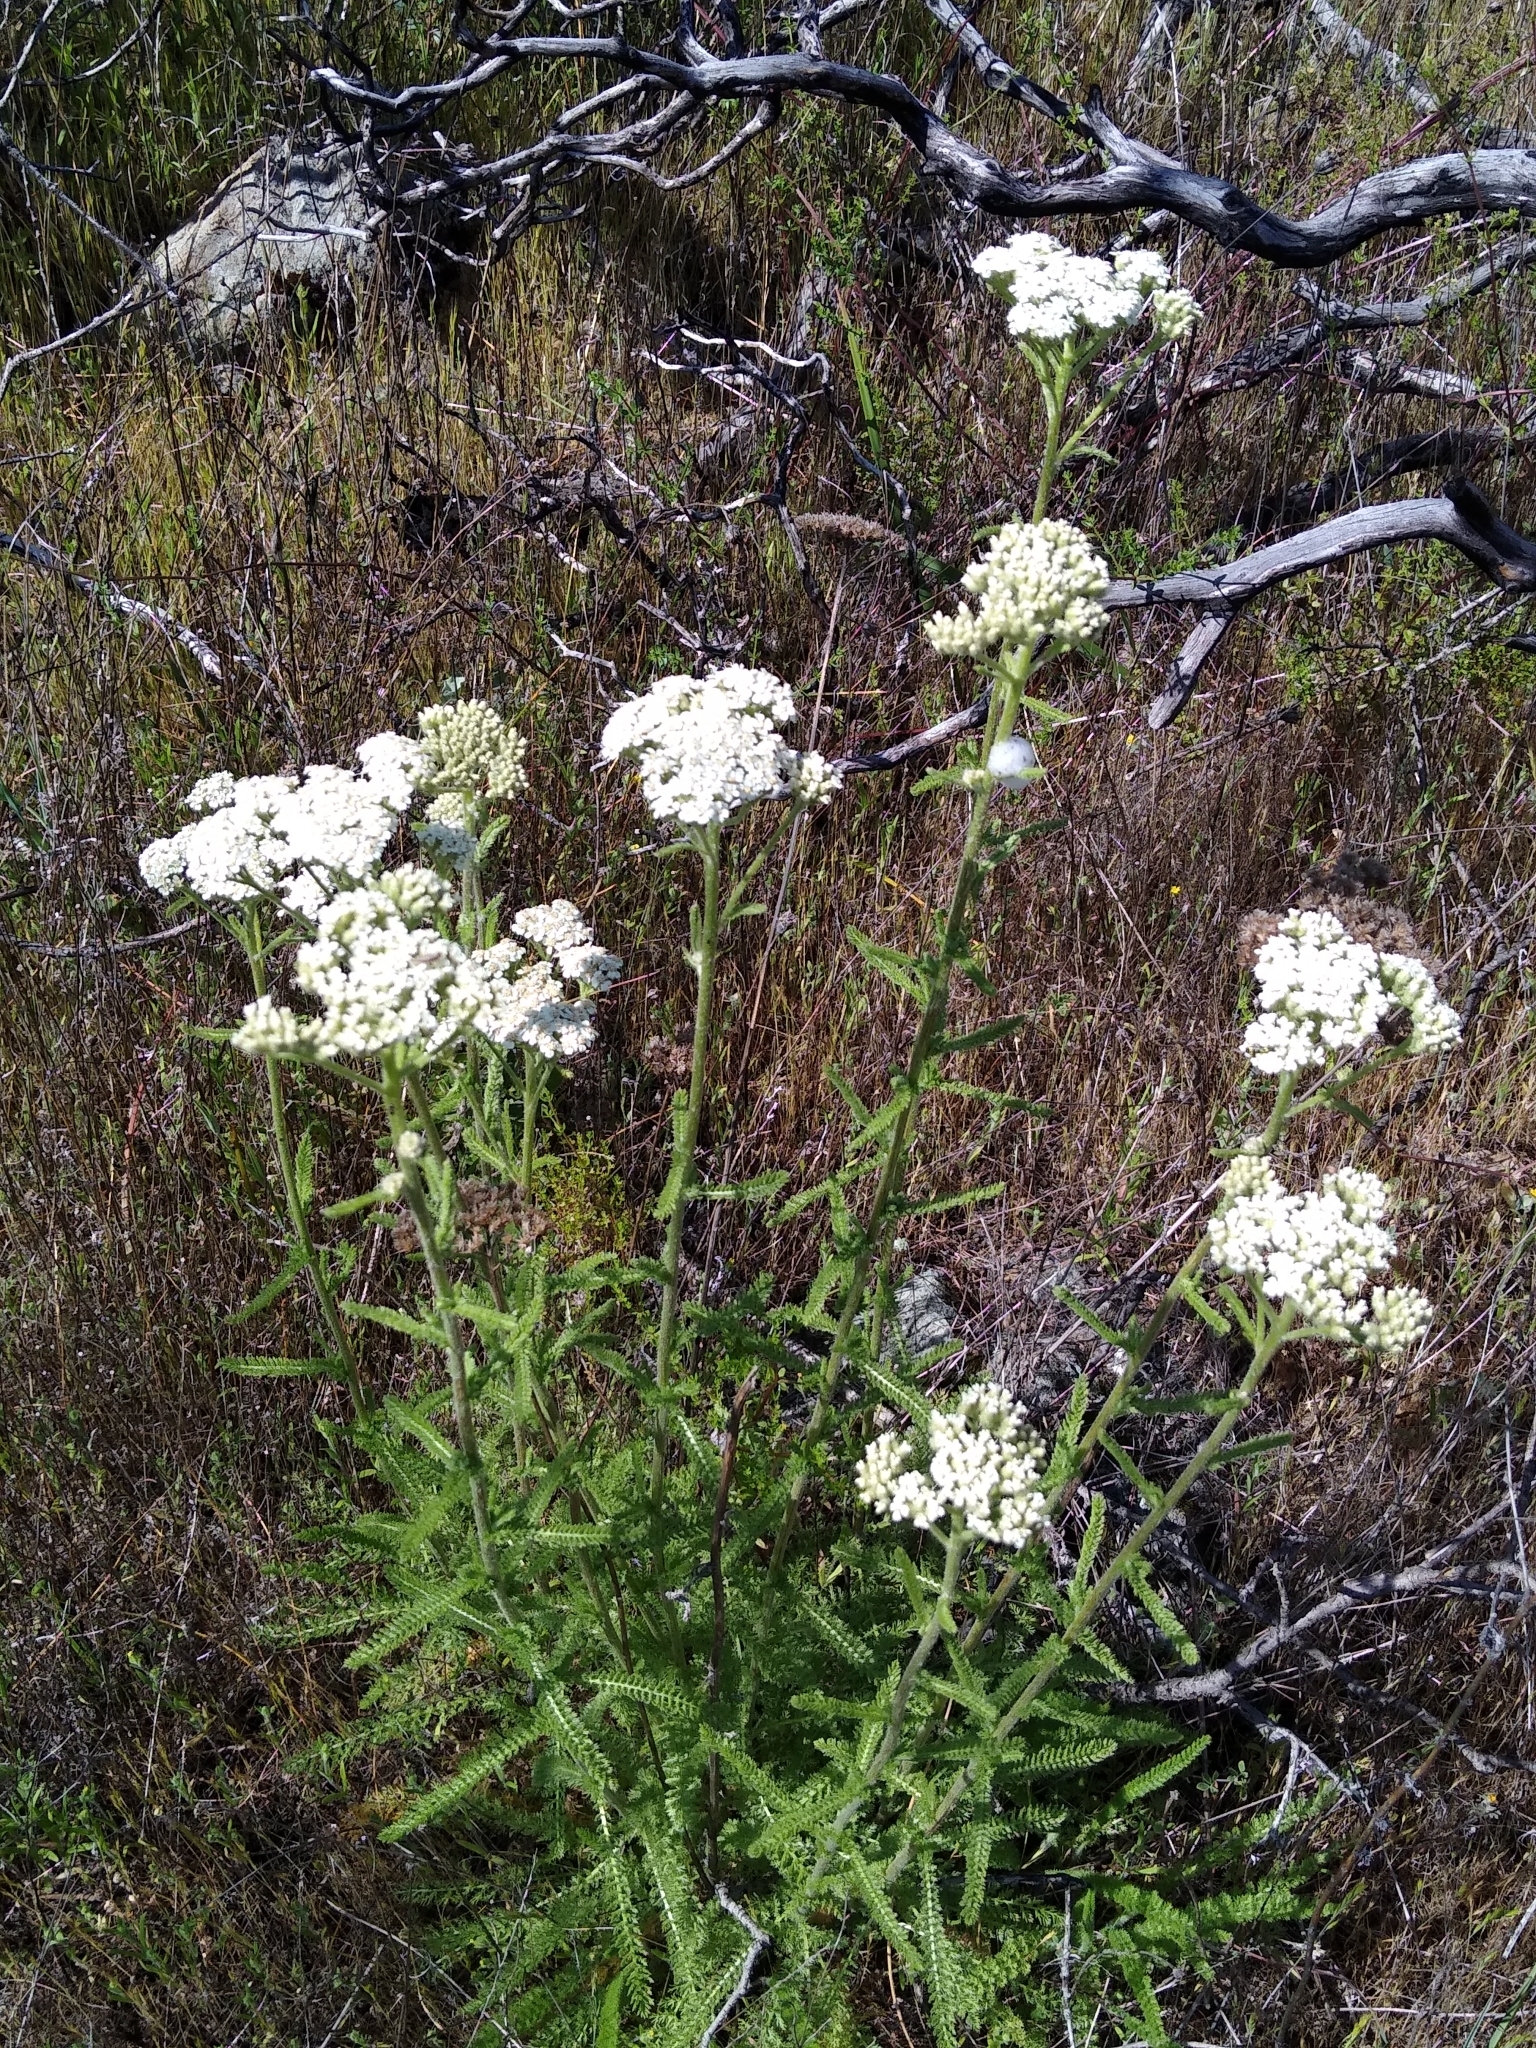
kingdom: Plantae
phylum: Tracheophyta
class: Magnoliopsida
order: Asterales
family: Asteraceae
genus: Achillea
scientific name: Achillea millefolium
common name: Yarrow
